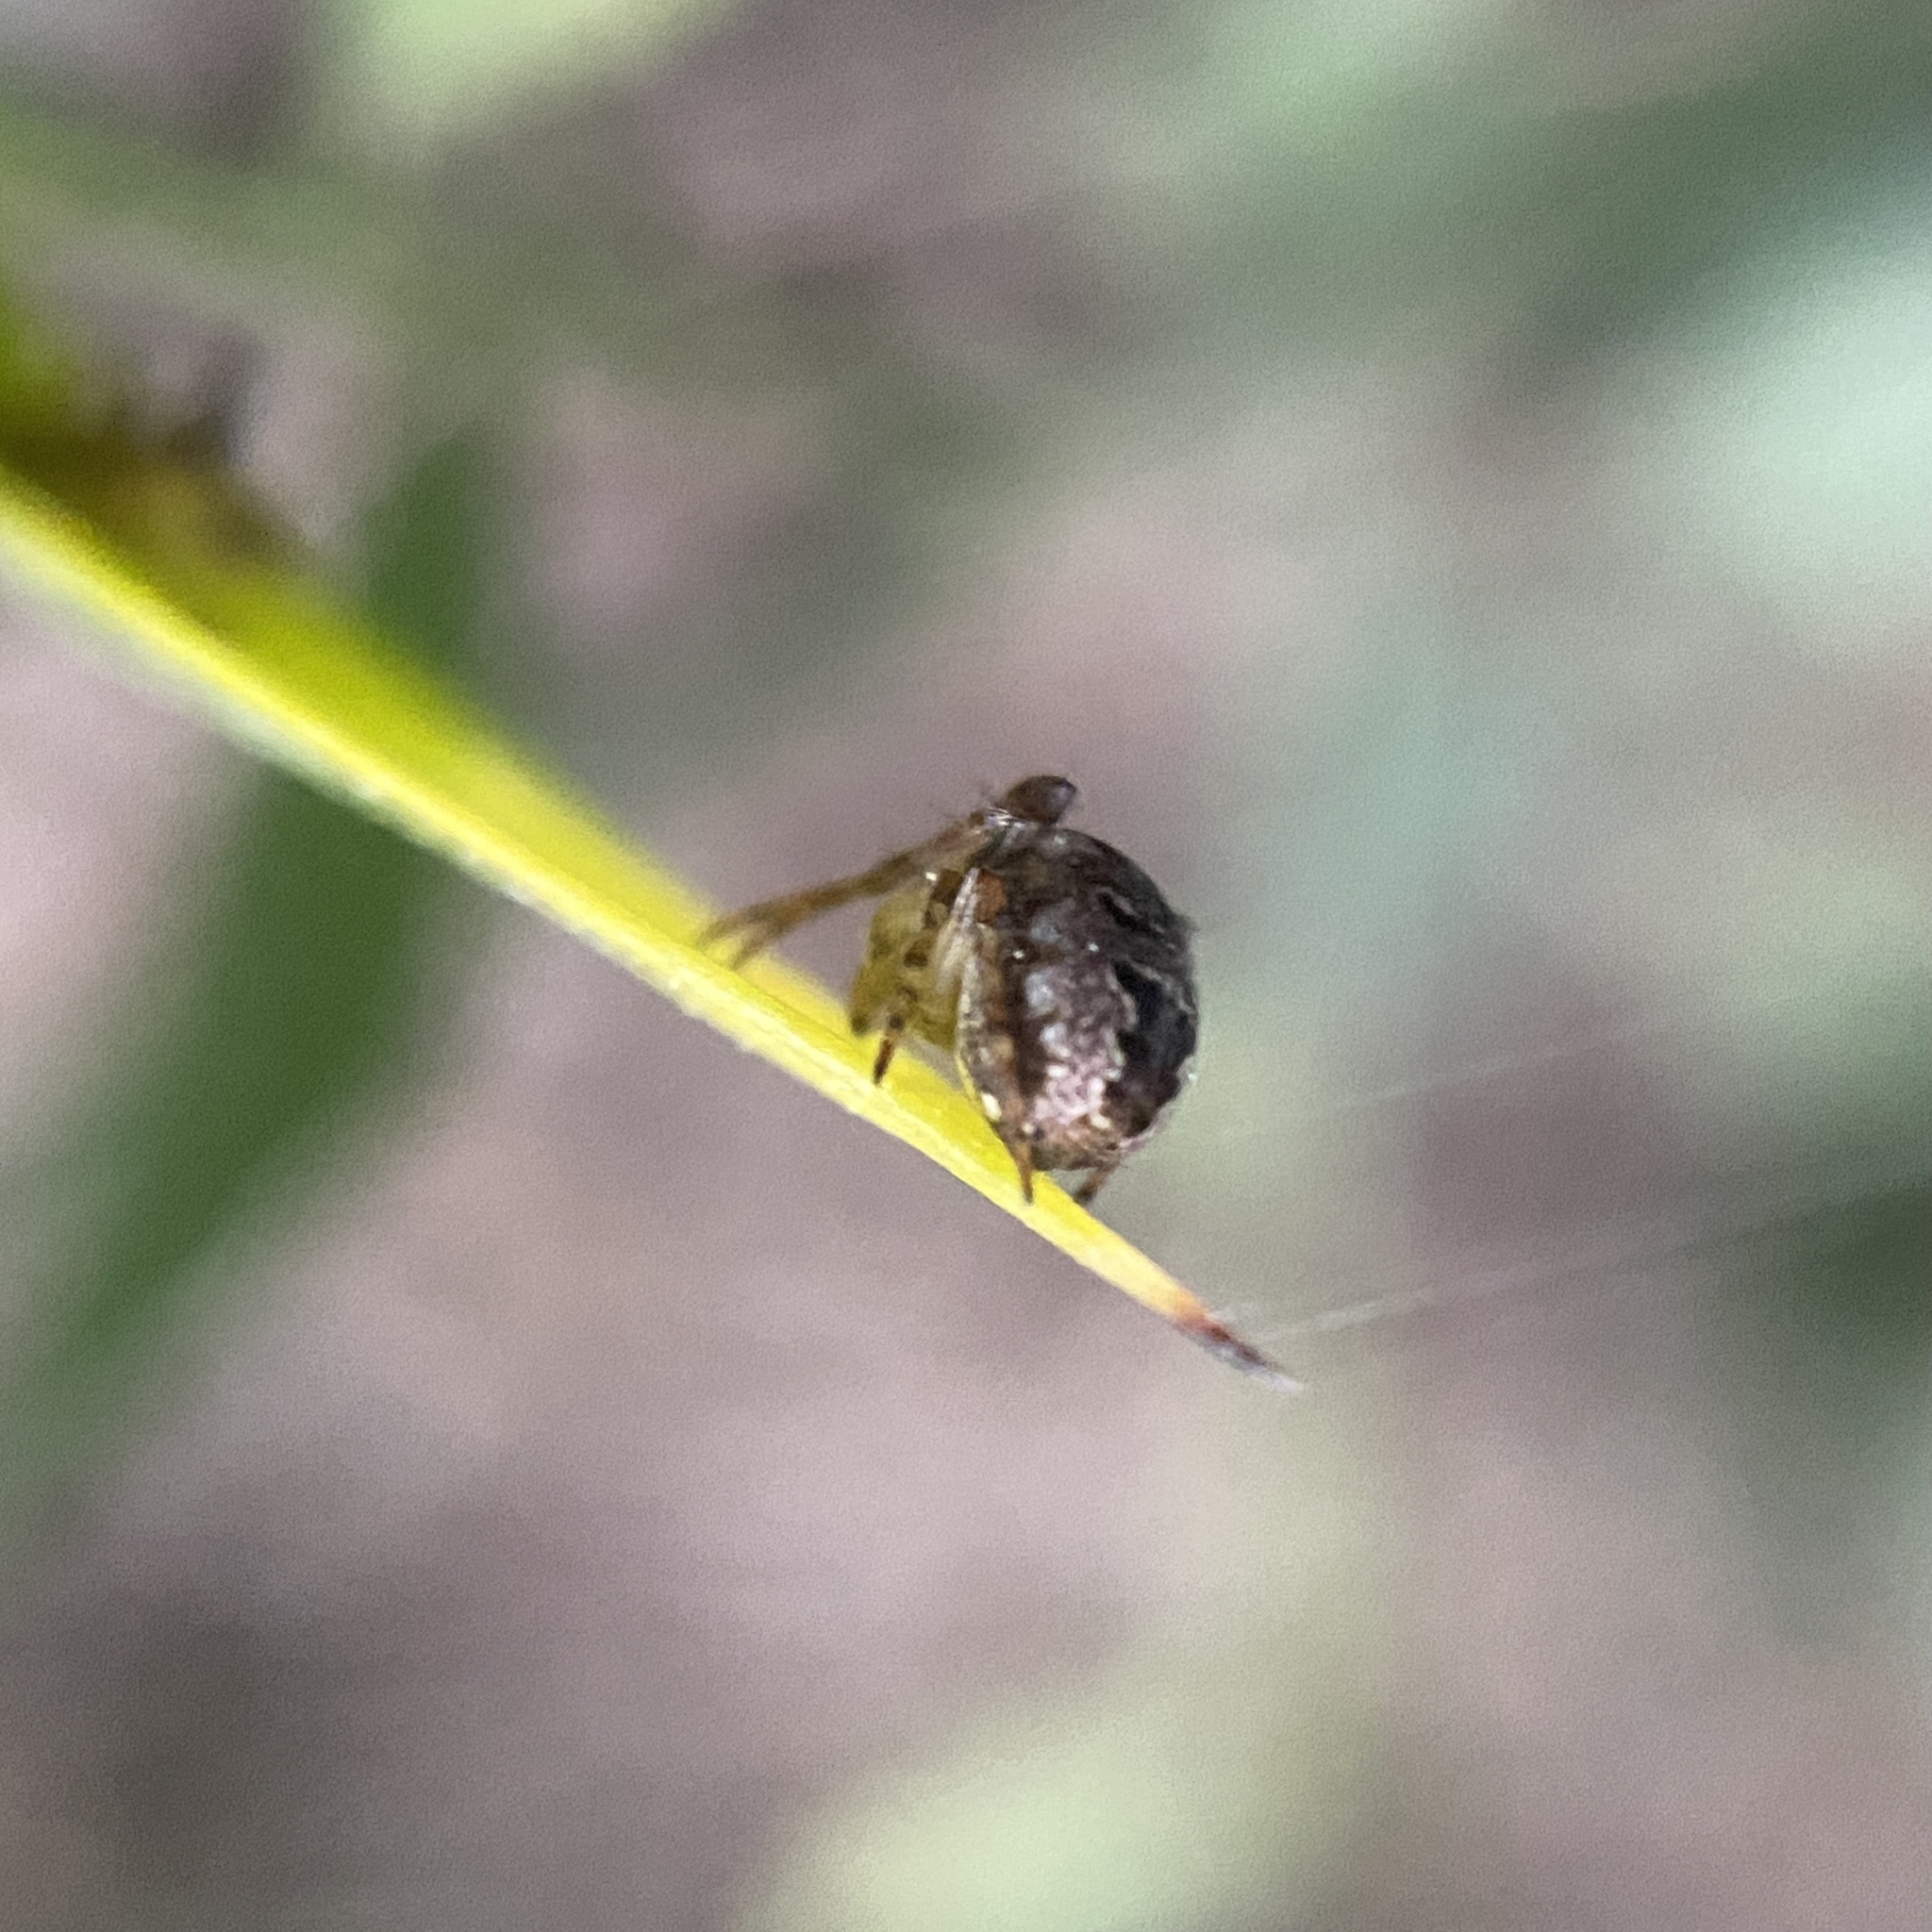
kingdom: Animalia
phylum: Arthropoda
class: Arachnida
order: Araneae
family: Araneidae
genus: Zilla
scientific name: Zilla diodia
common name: Zilla diodia
